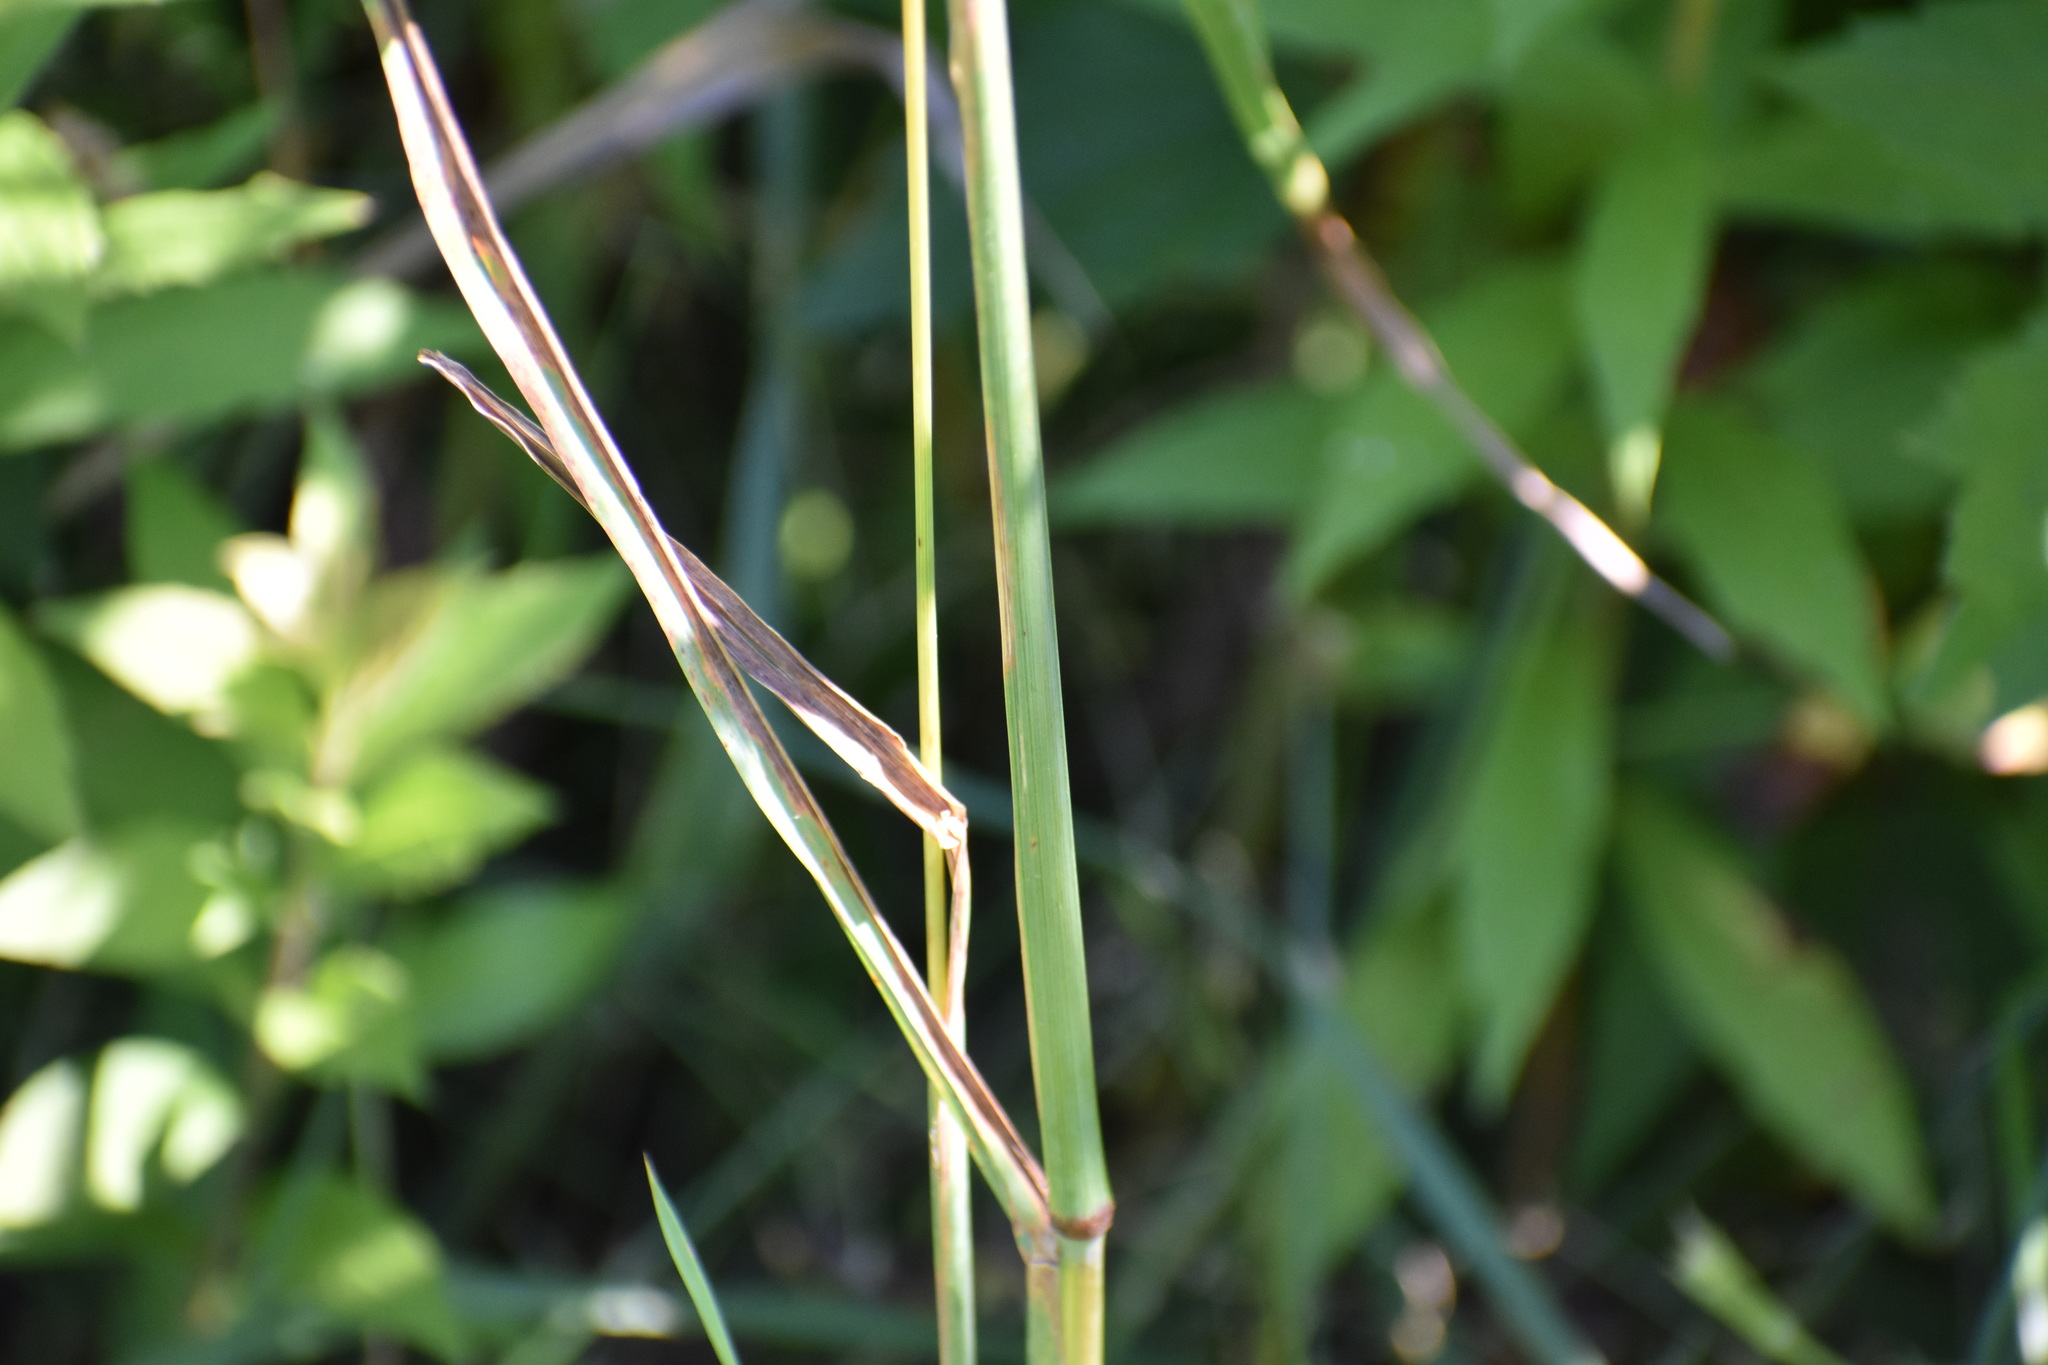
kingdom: Plantae
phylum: Tracheophyta
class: Liliopsida
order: Poales
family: Poaceae
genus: Dactylis
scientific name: Dactylis glomerata
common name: Orchardgrass
